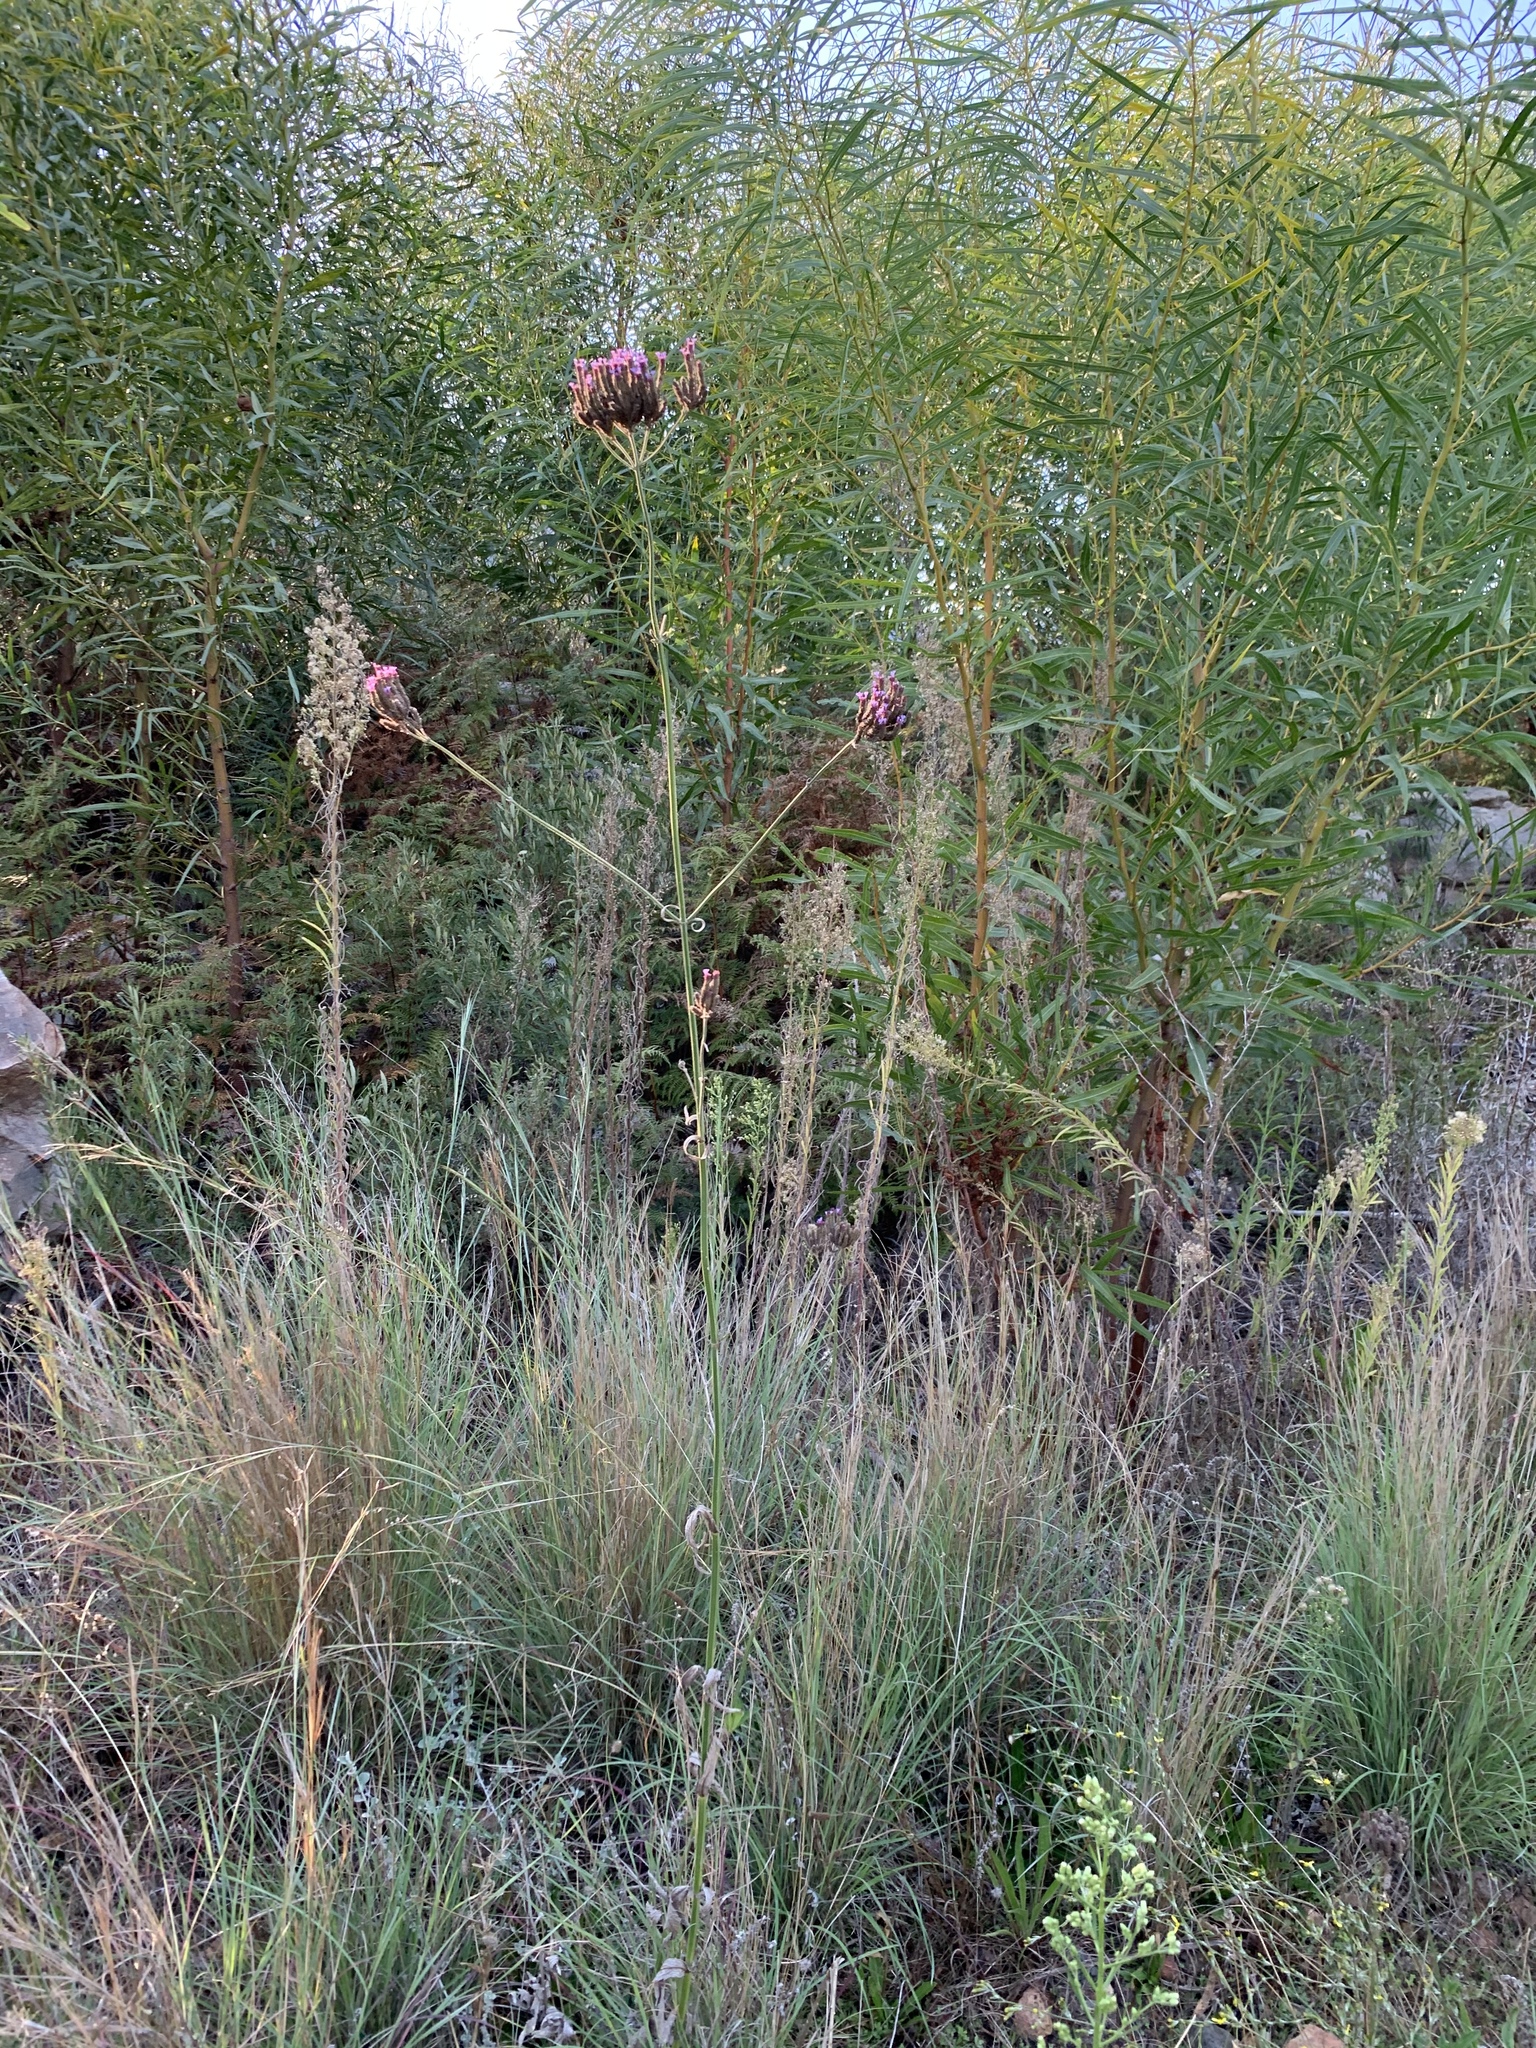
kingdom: Plantae
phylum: Tracheophyta
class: Magnoliopsida
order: Lamiales
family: Verbenaceae
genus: Verbena
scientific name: Verbena bonariensis
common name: Purpletop vervain
